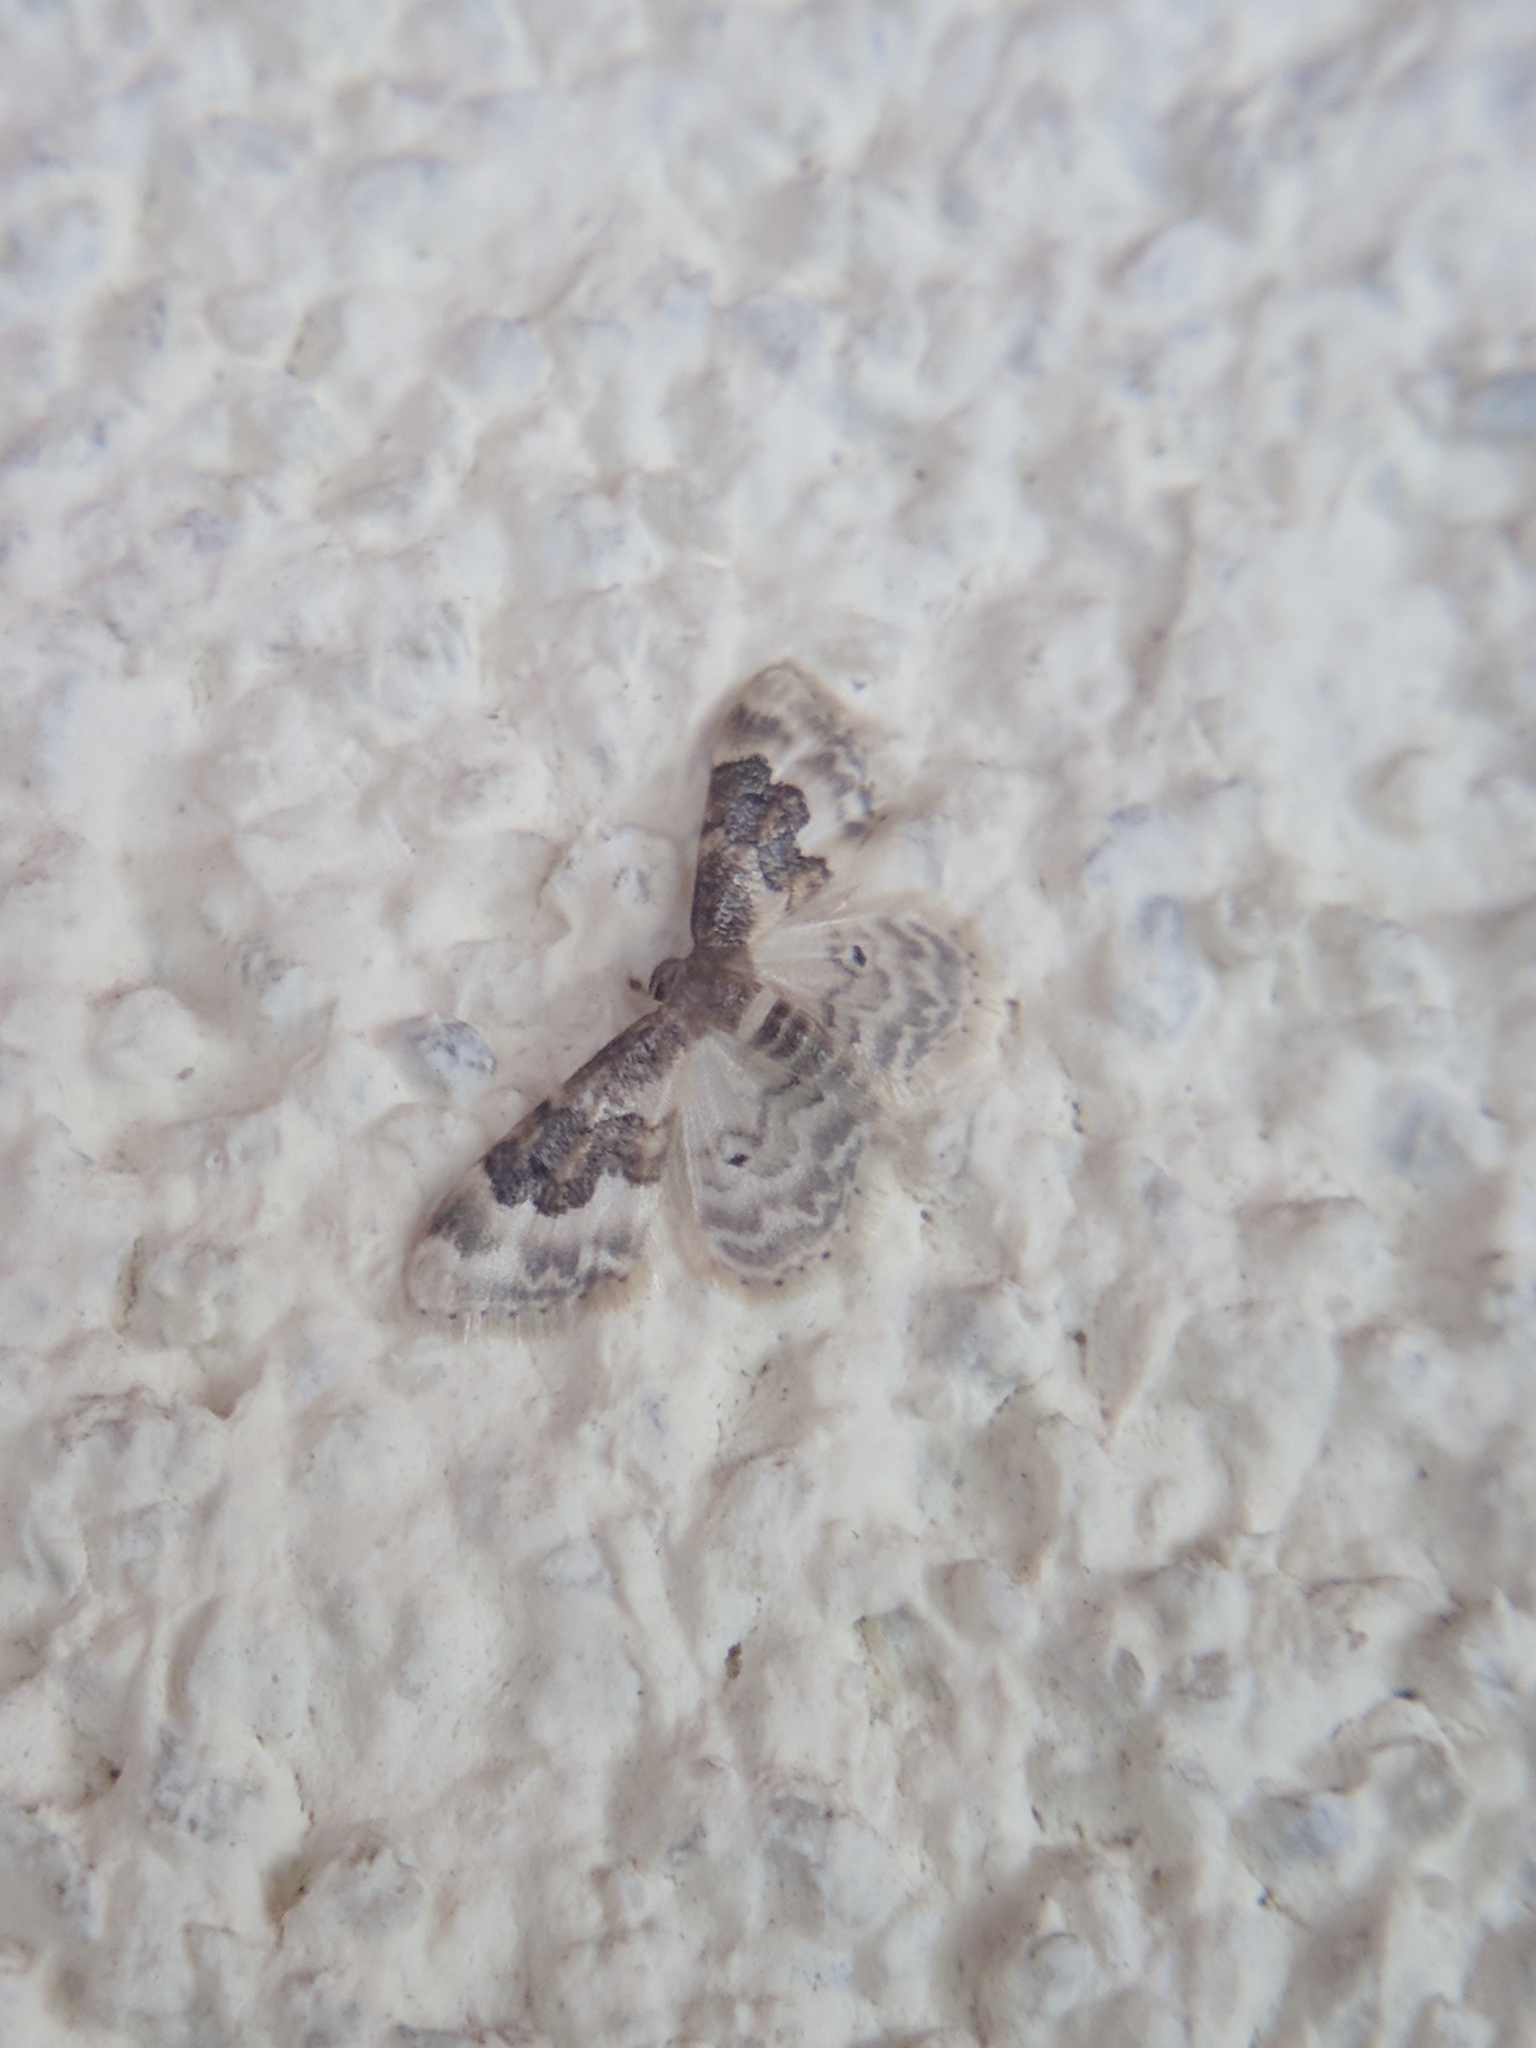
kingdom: Animalia
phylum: Arthropoda
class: Insecta
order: Lepidoptera
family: Geometridae
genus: Idaea
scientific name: Idaea rusticata
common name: Least carpet
